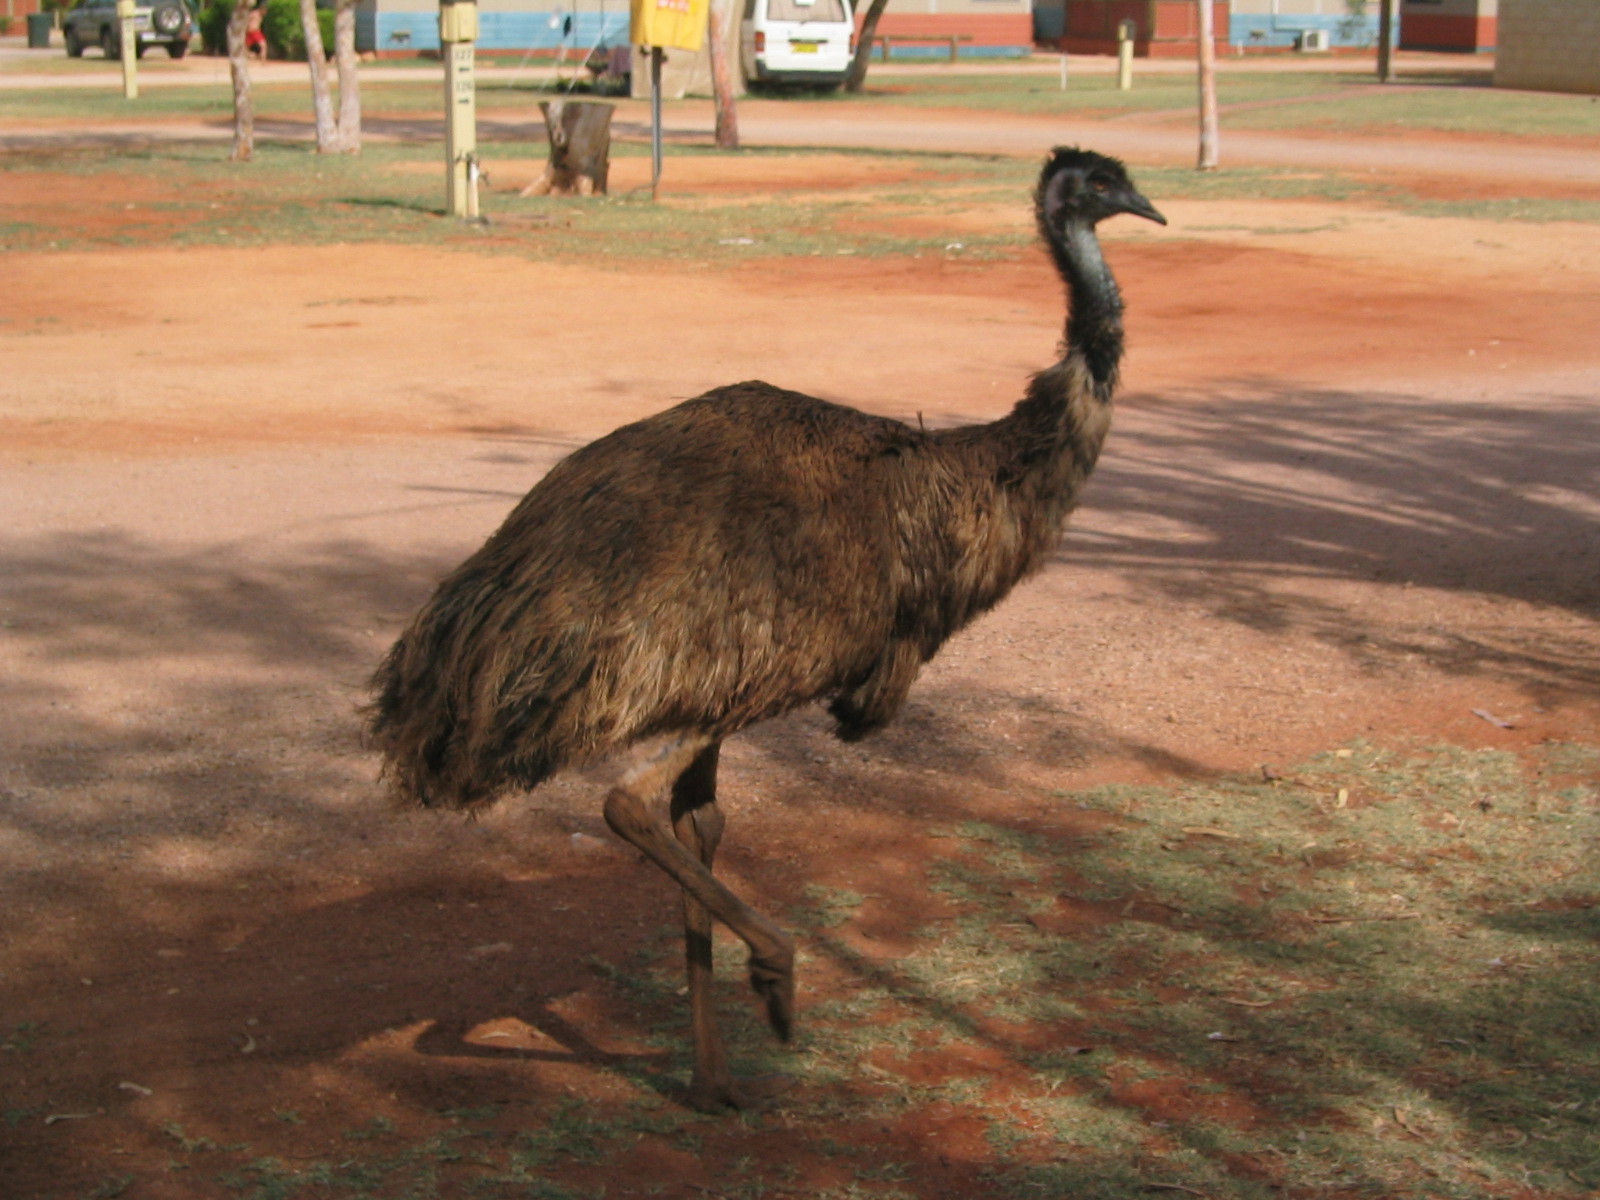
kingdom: Animalia
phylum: Chordata
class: Aves
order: Casuariiformes
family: Dromaiidae
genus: Dromaius
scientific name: Dromaius novaehollandiae
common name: Emu
